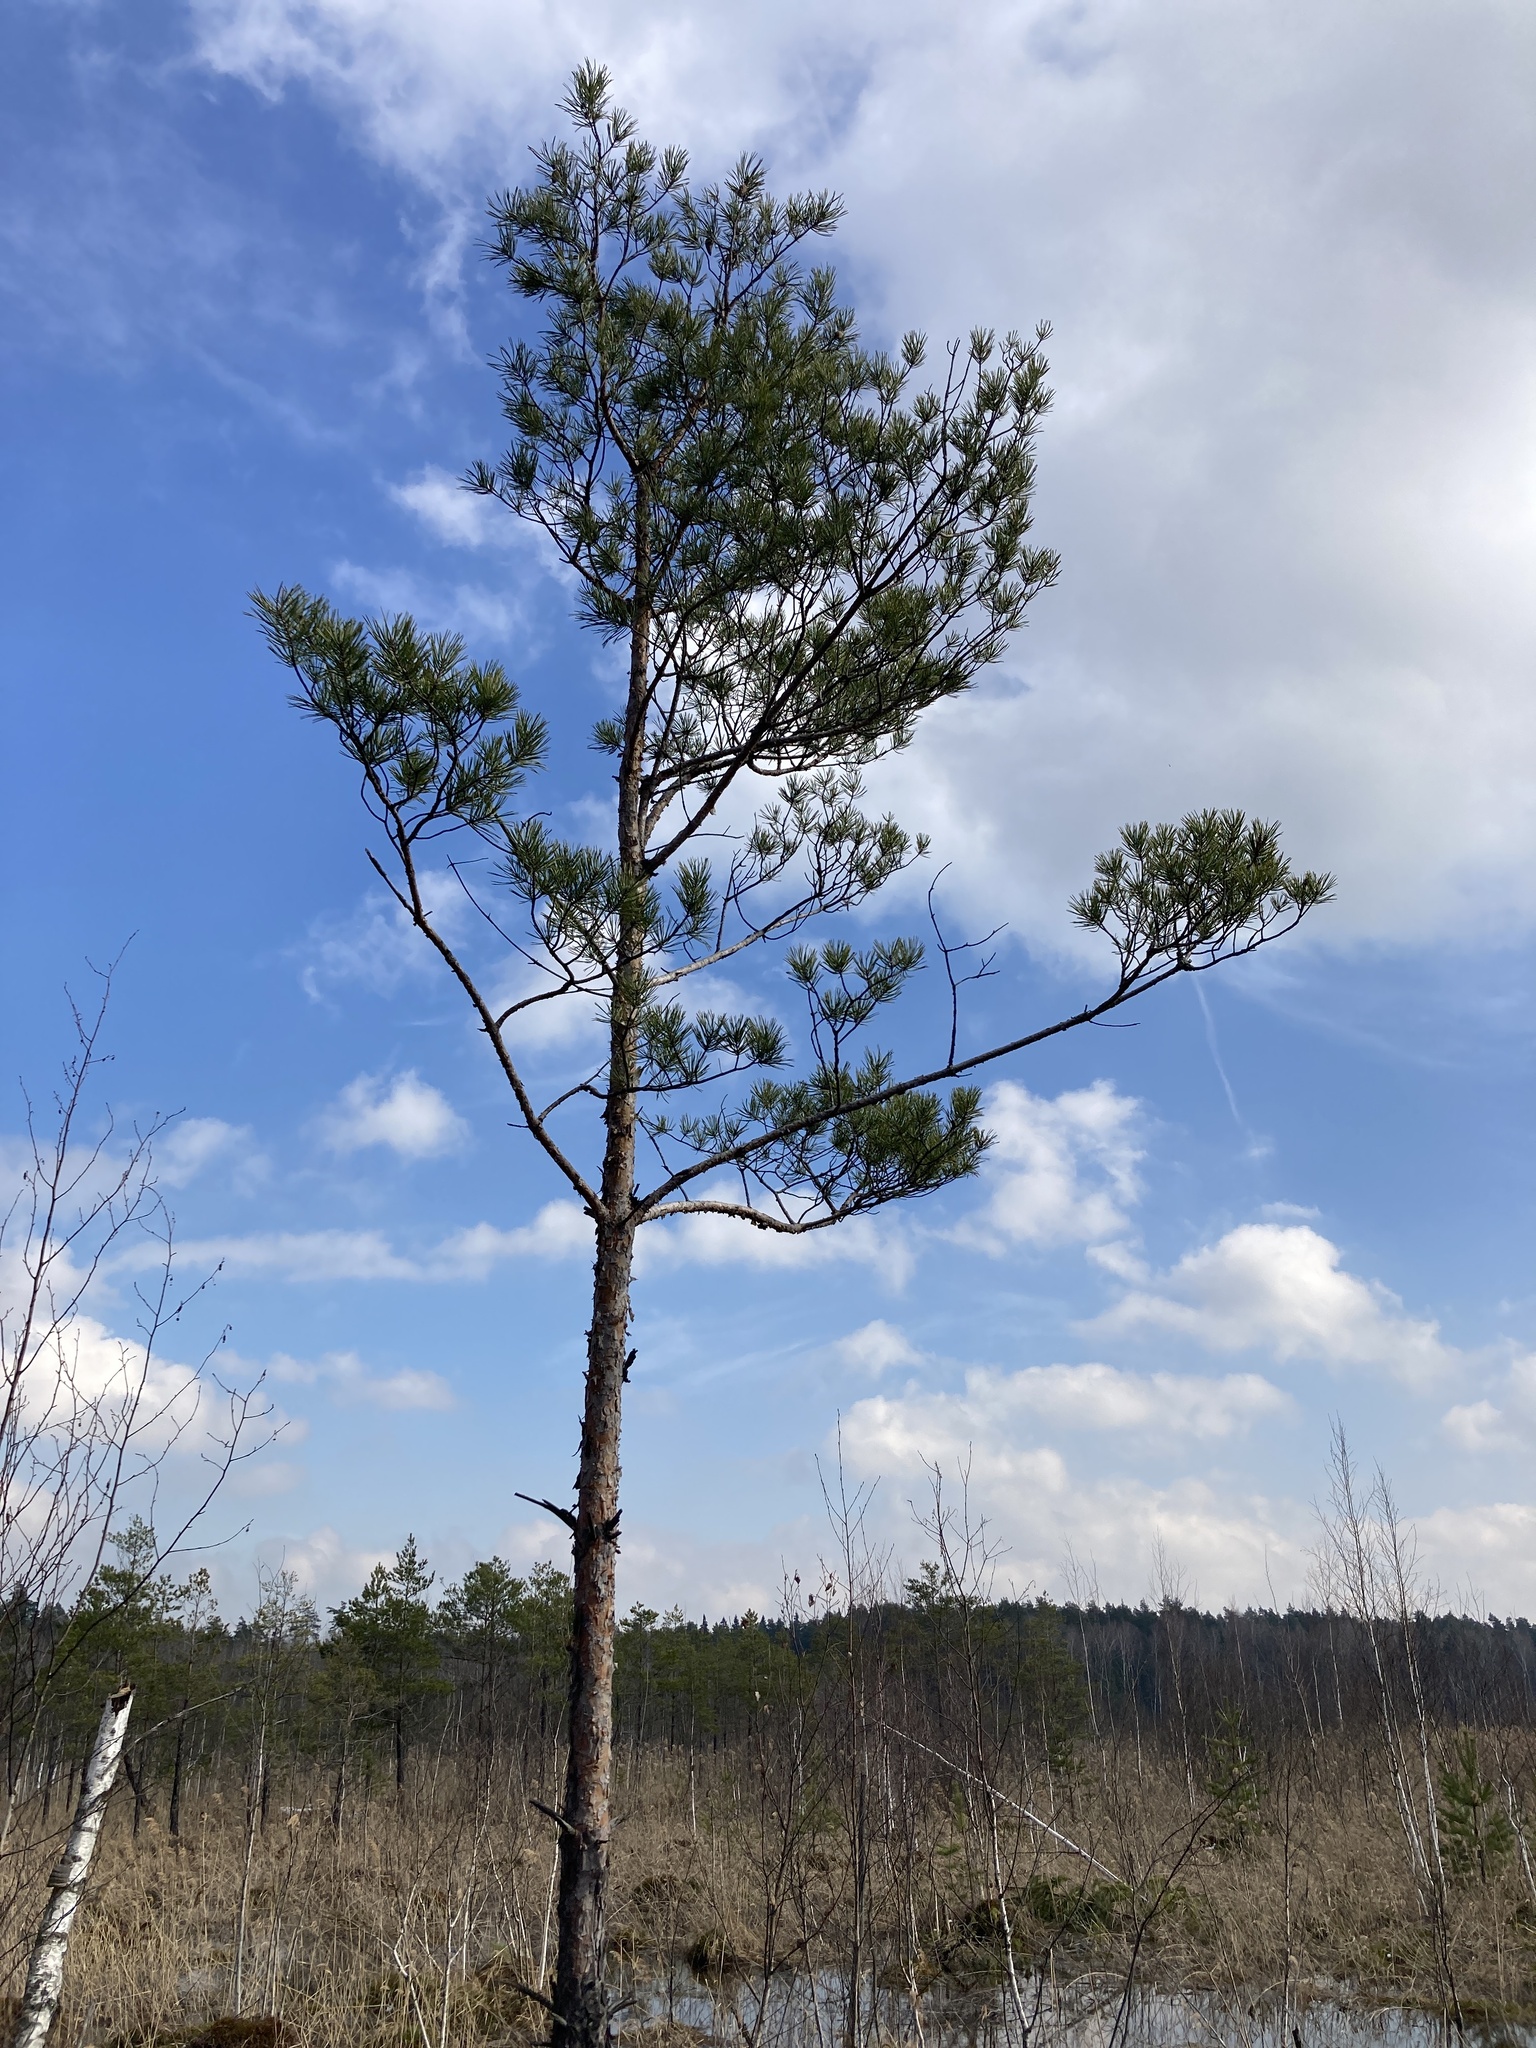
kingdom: Plantae
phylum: Tracheophyta
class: Pinopsida
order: Pinales
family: Pinaceae
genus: Pinus
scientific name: Pinus sylvestris
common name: Scots pine
